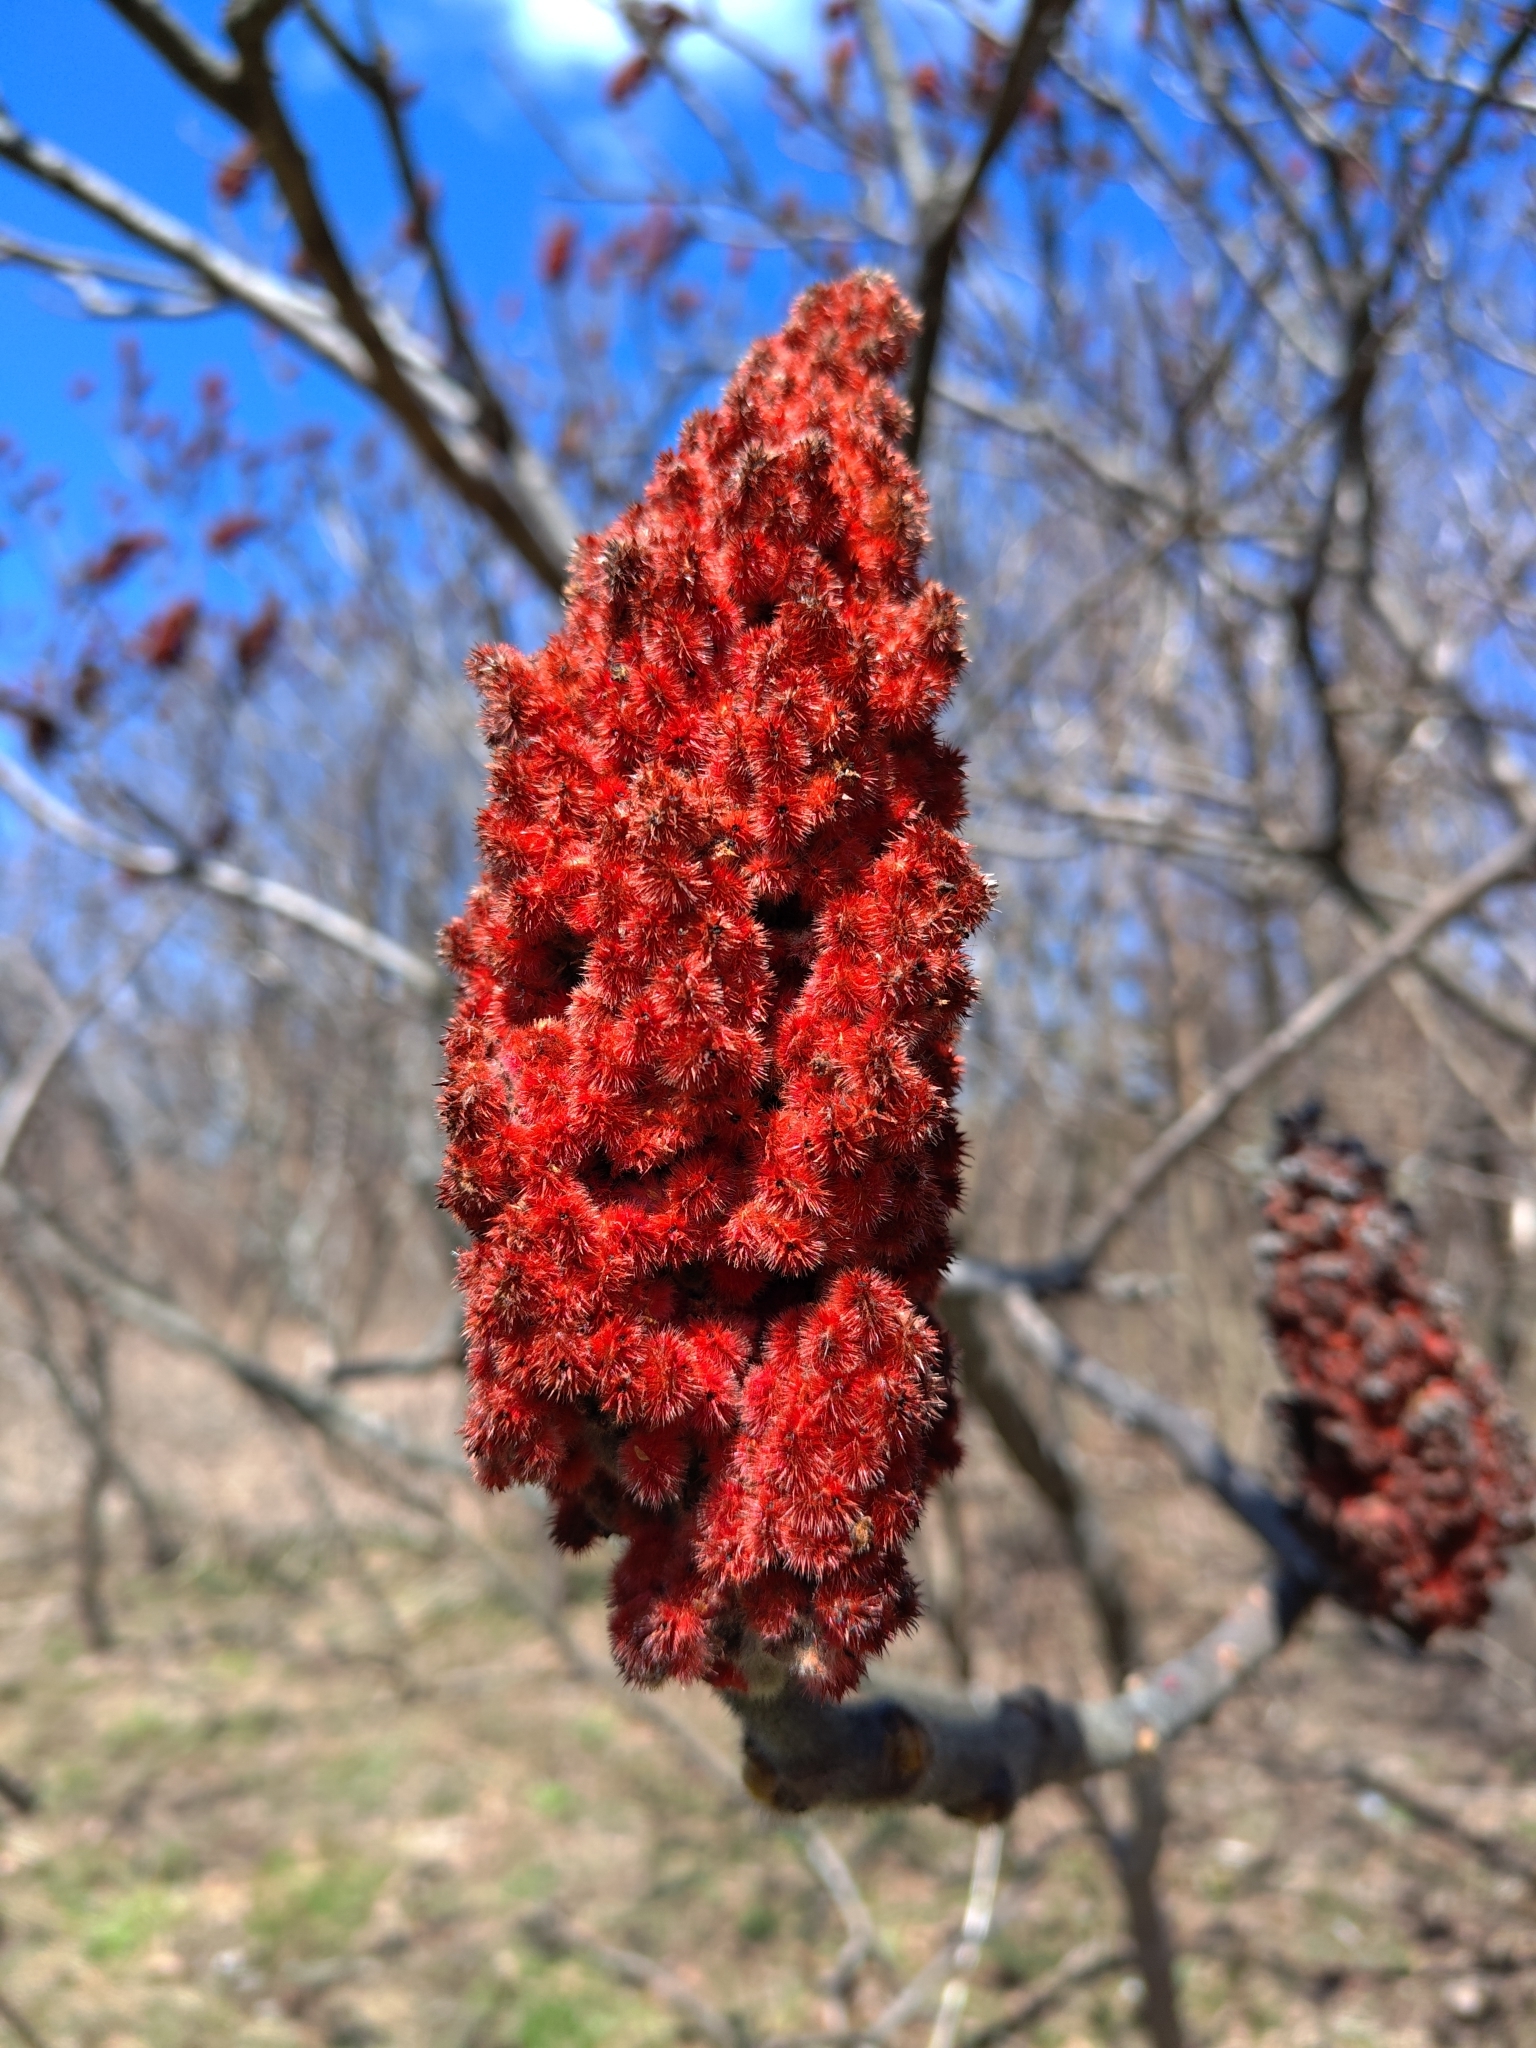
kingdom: Plantae
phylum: Tracheophyta
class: Magnoliopsida
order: Sapindales
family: Anacardiaceae
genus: Rhus
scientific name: Rhus typhina
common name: Staghorn sumac
